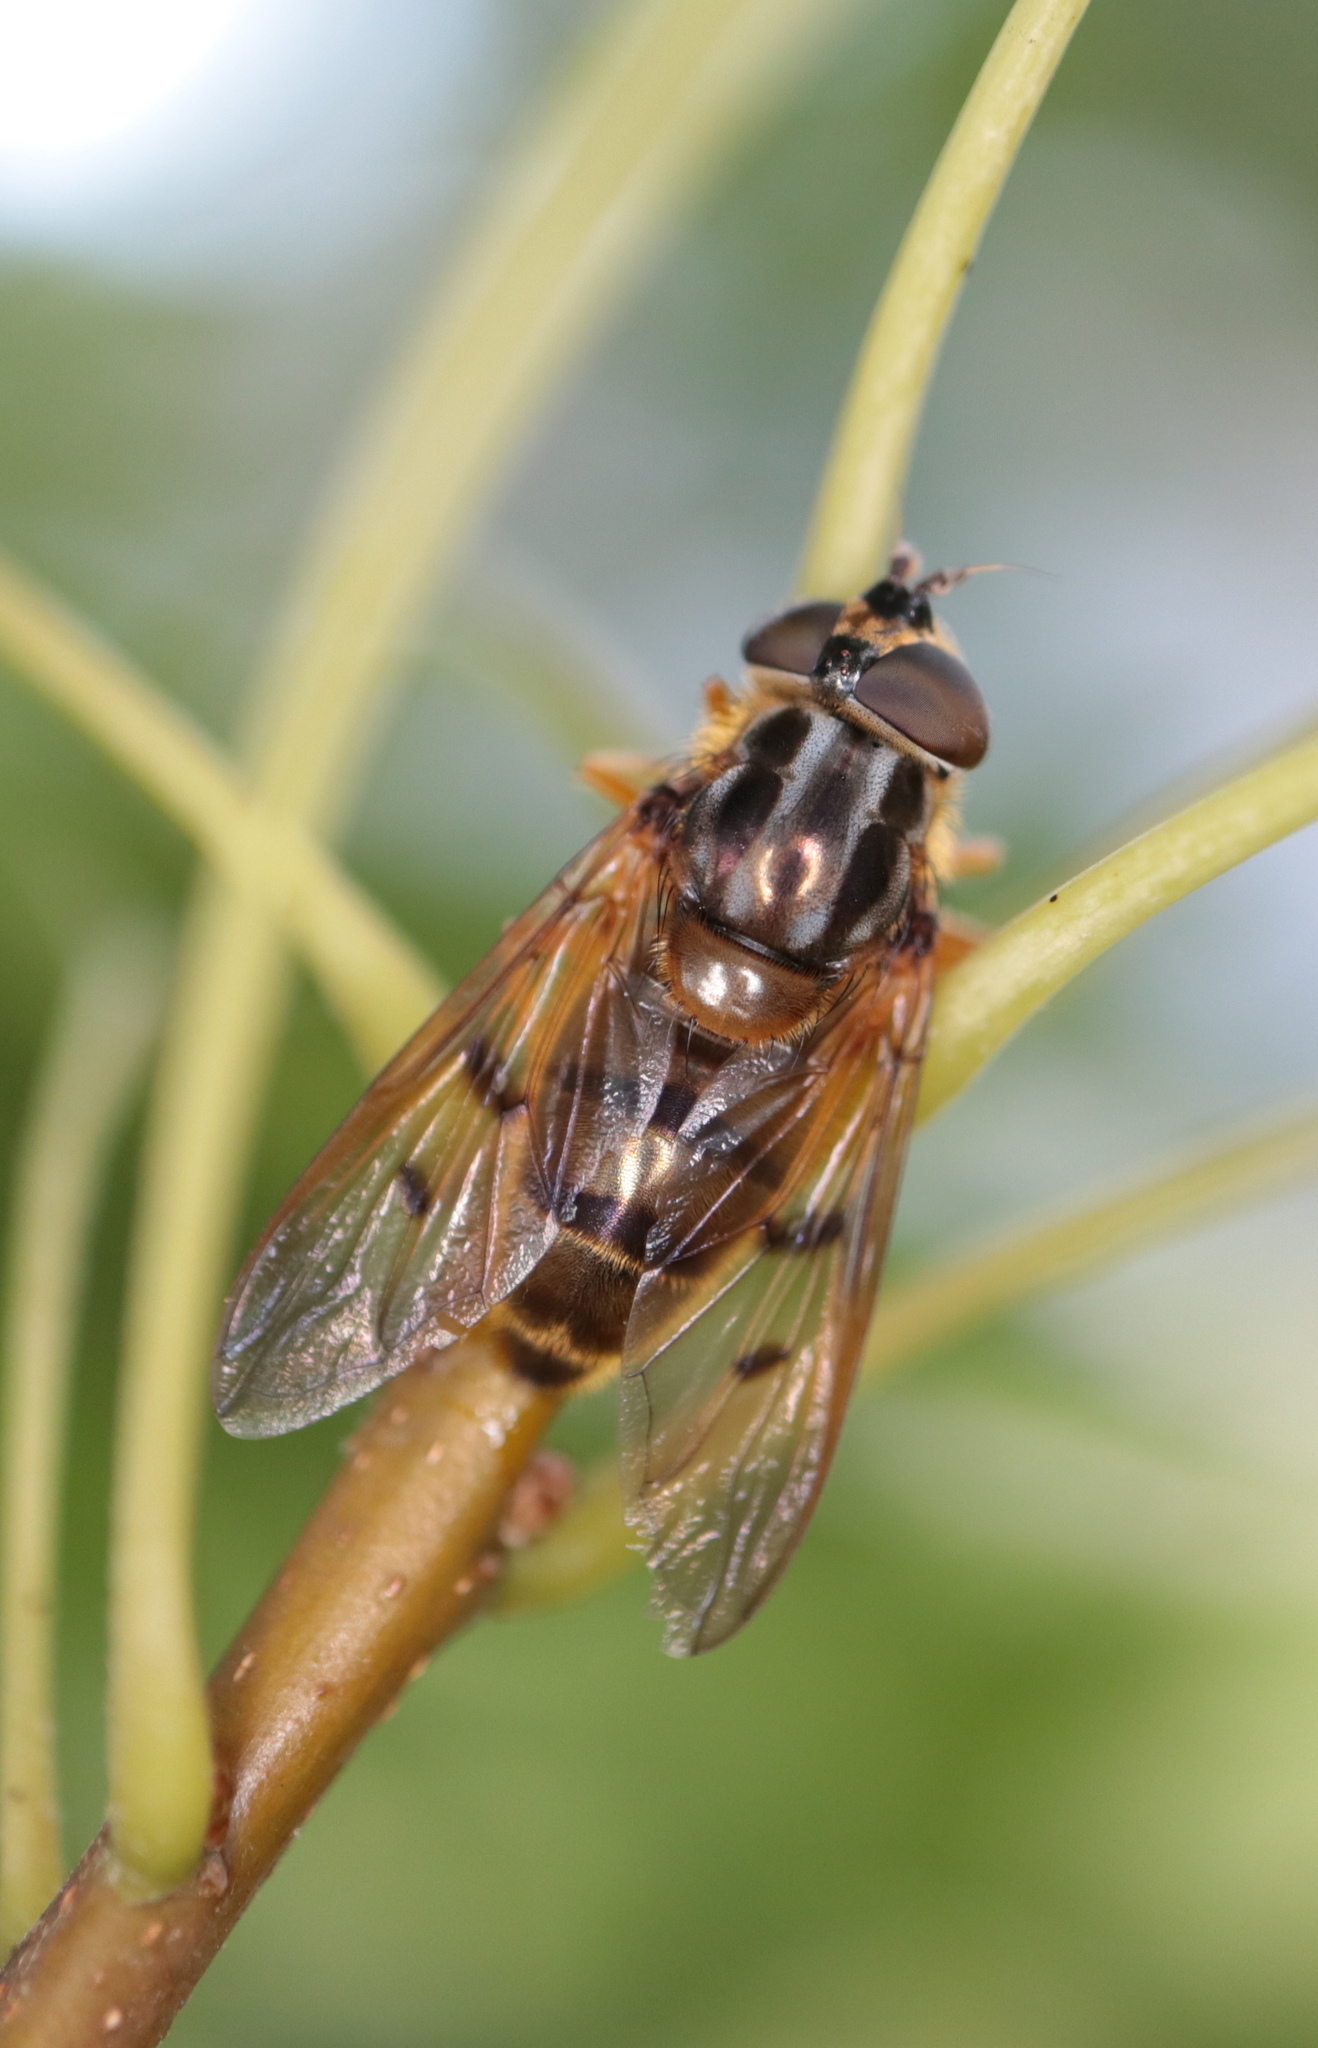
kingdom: Animalia
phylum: Arthropoda
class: Insecta
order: Diptera
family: Syrphidae
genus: Ferdinandea
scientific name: Ferdinandea buccata
